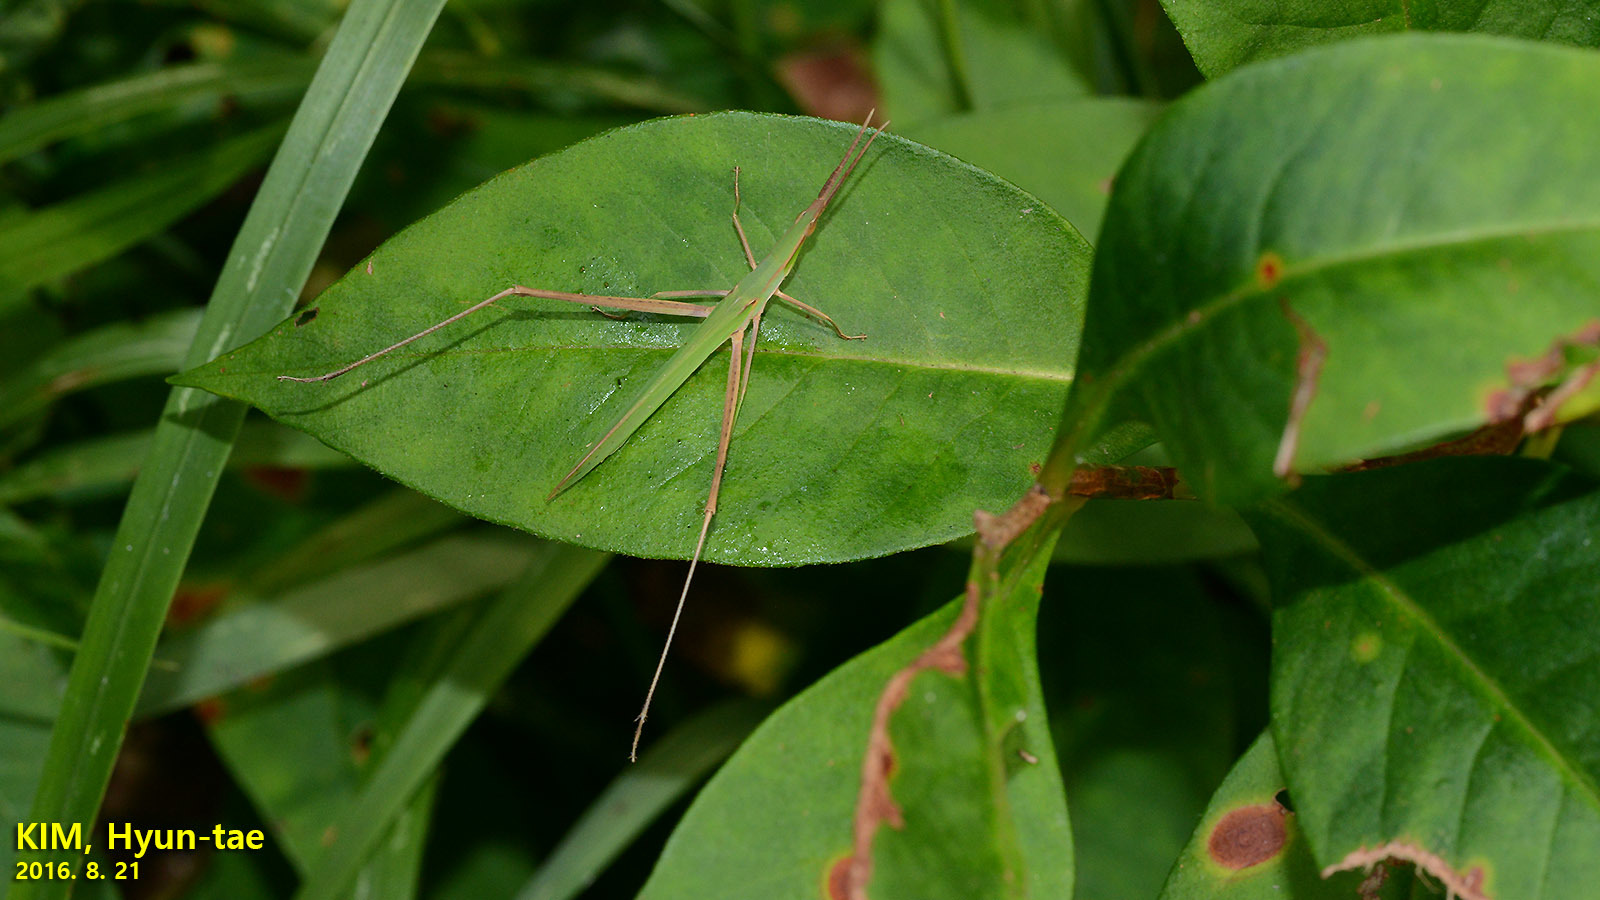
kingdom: Animalia
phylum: Arthropoda
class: Insecta
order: Orthoptera
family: Acrididae
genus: Acrida
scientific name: Acrida cinerea
